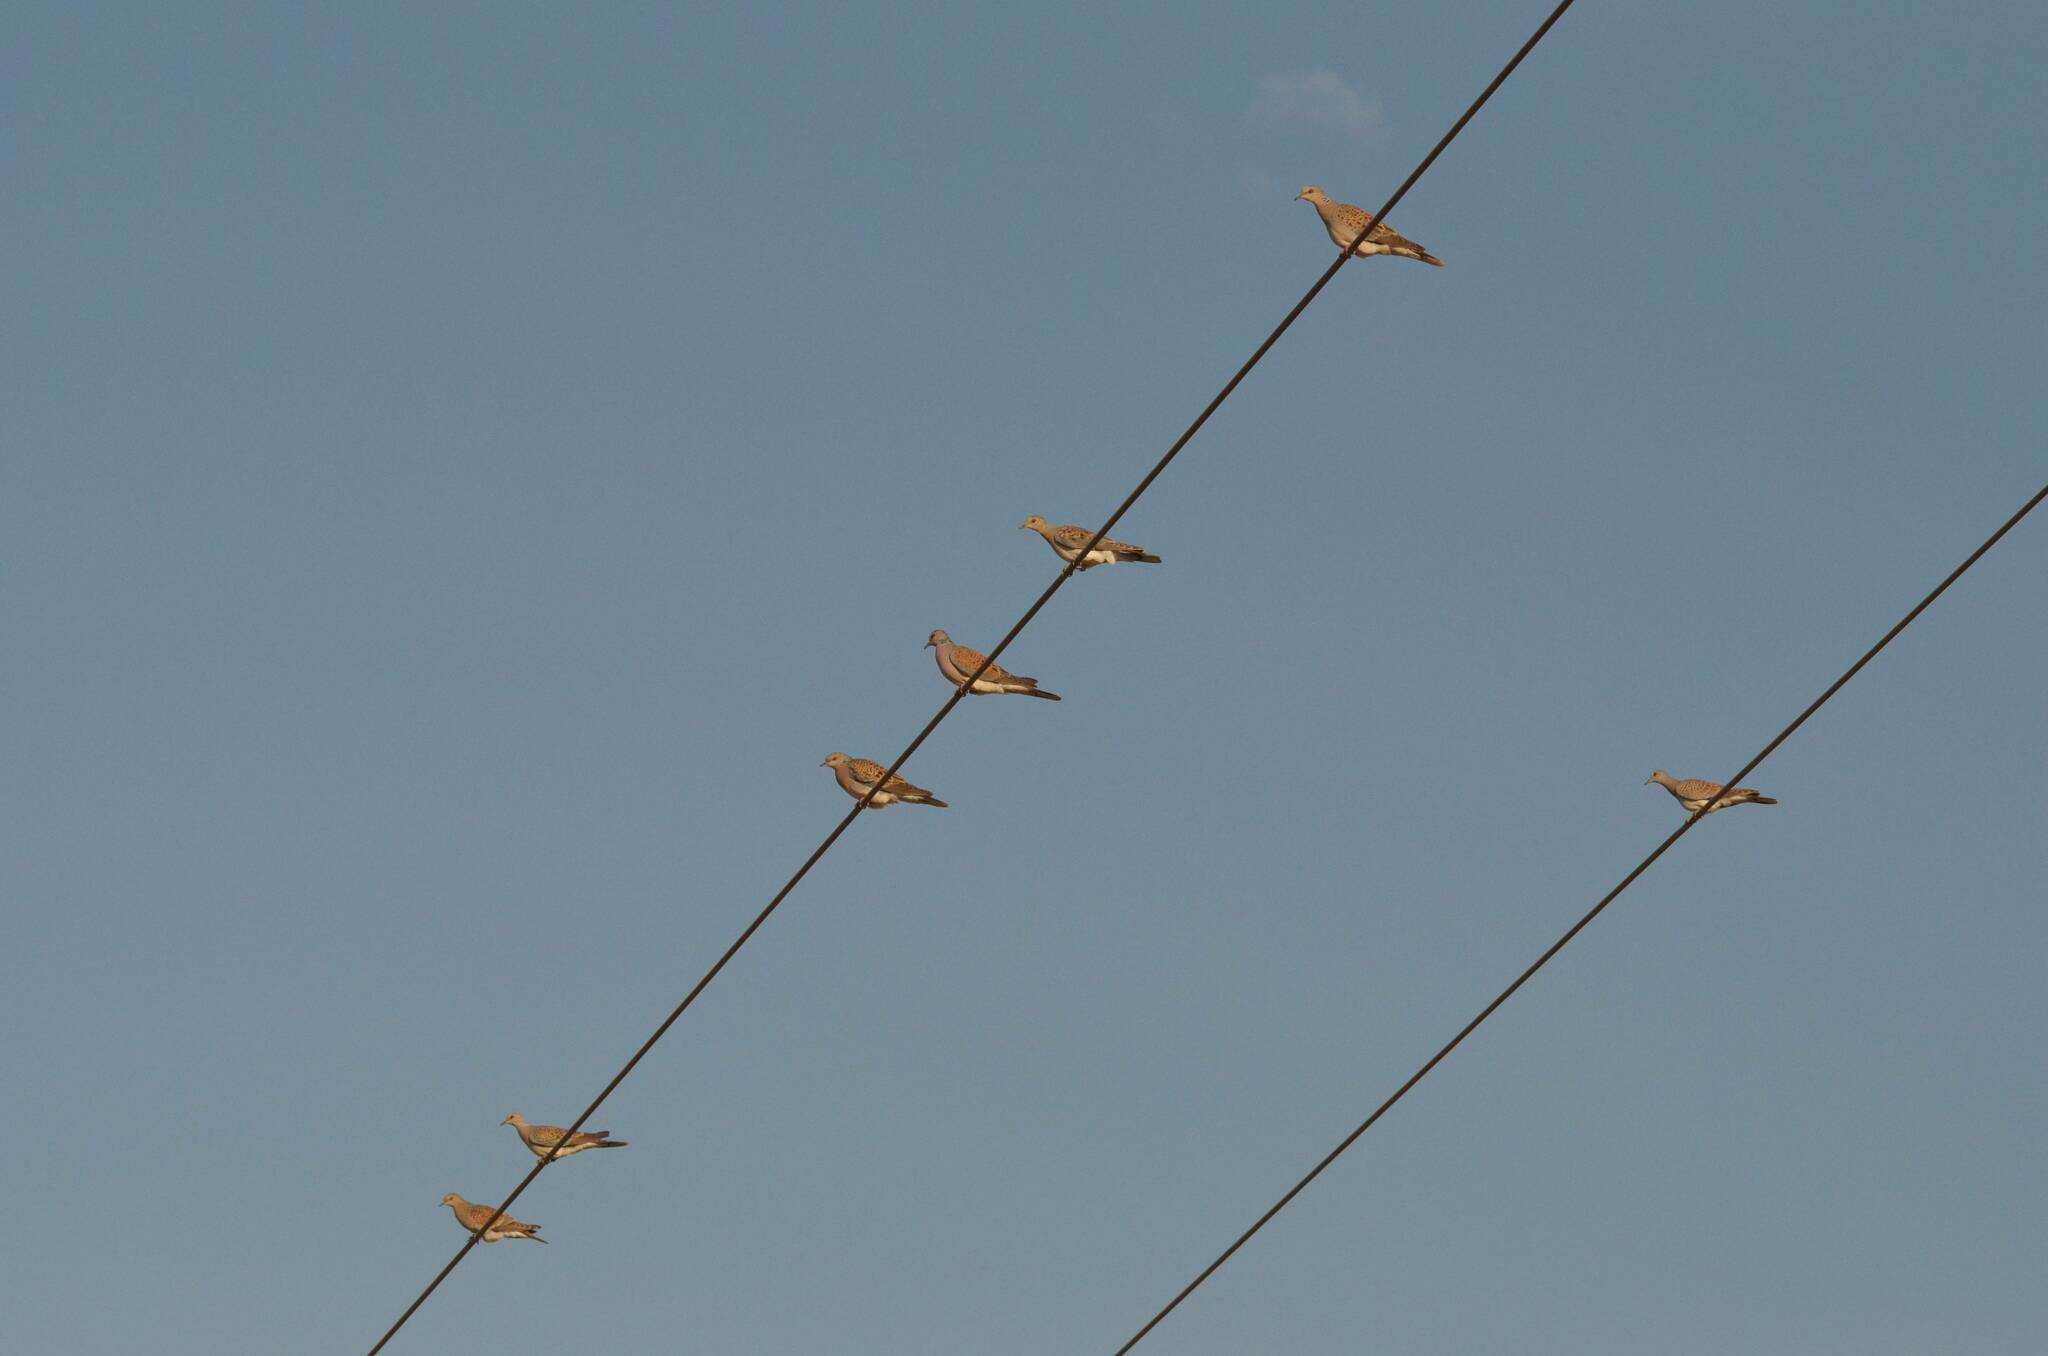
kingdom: Animalia
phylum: Chordata
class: Aves
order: Columbiformes
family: Columbidae
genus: Streptopelia
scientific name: Streptopelia turtur
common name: European turtle dove
